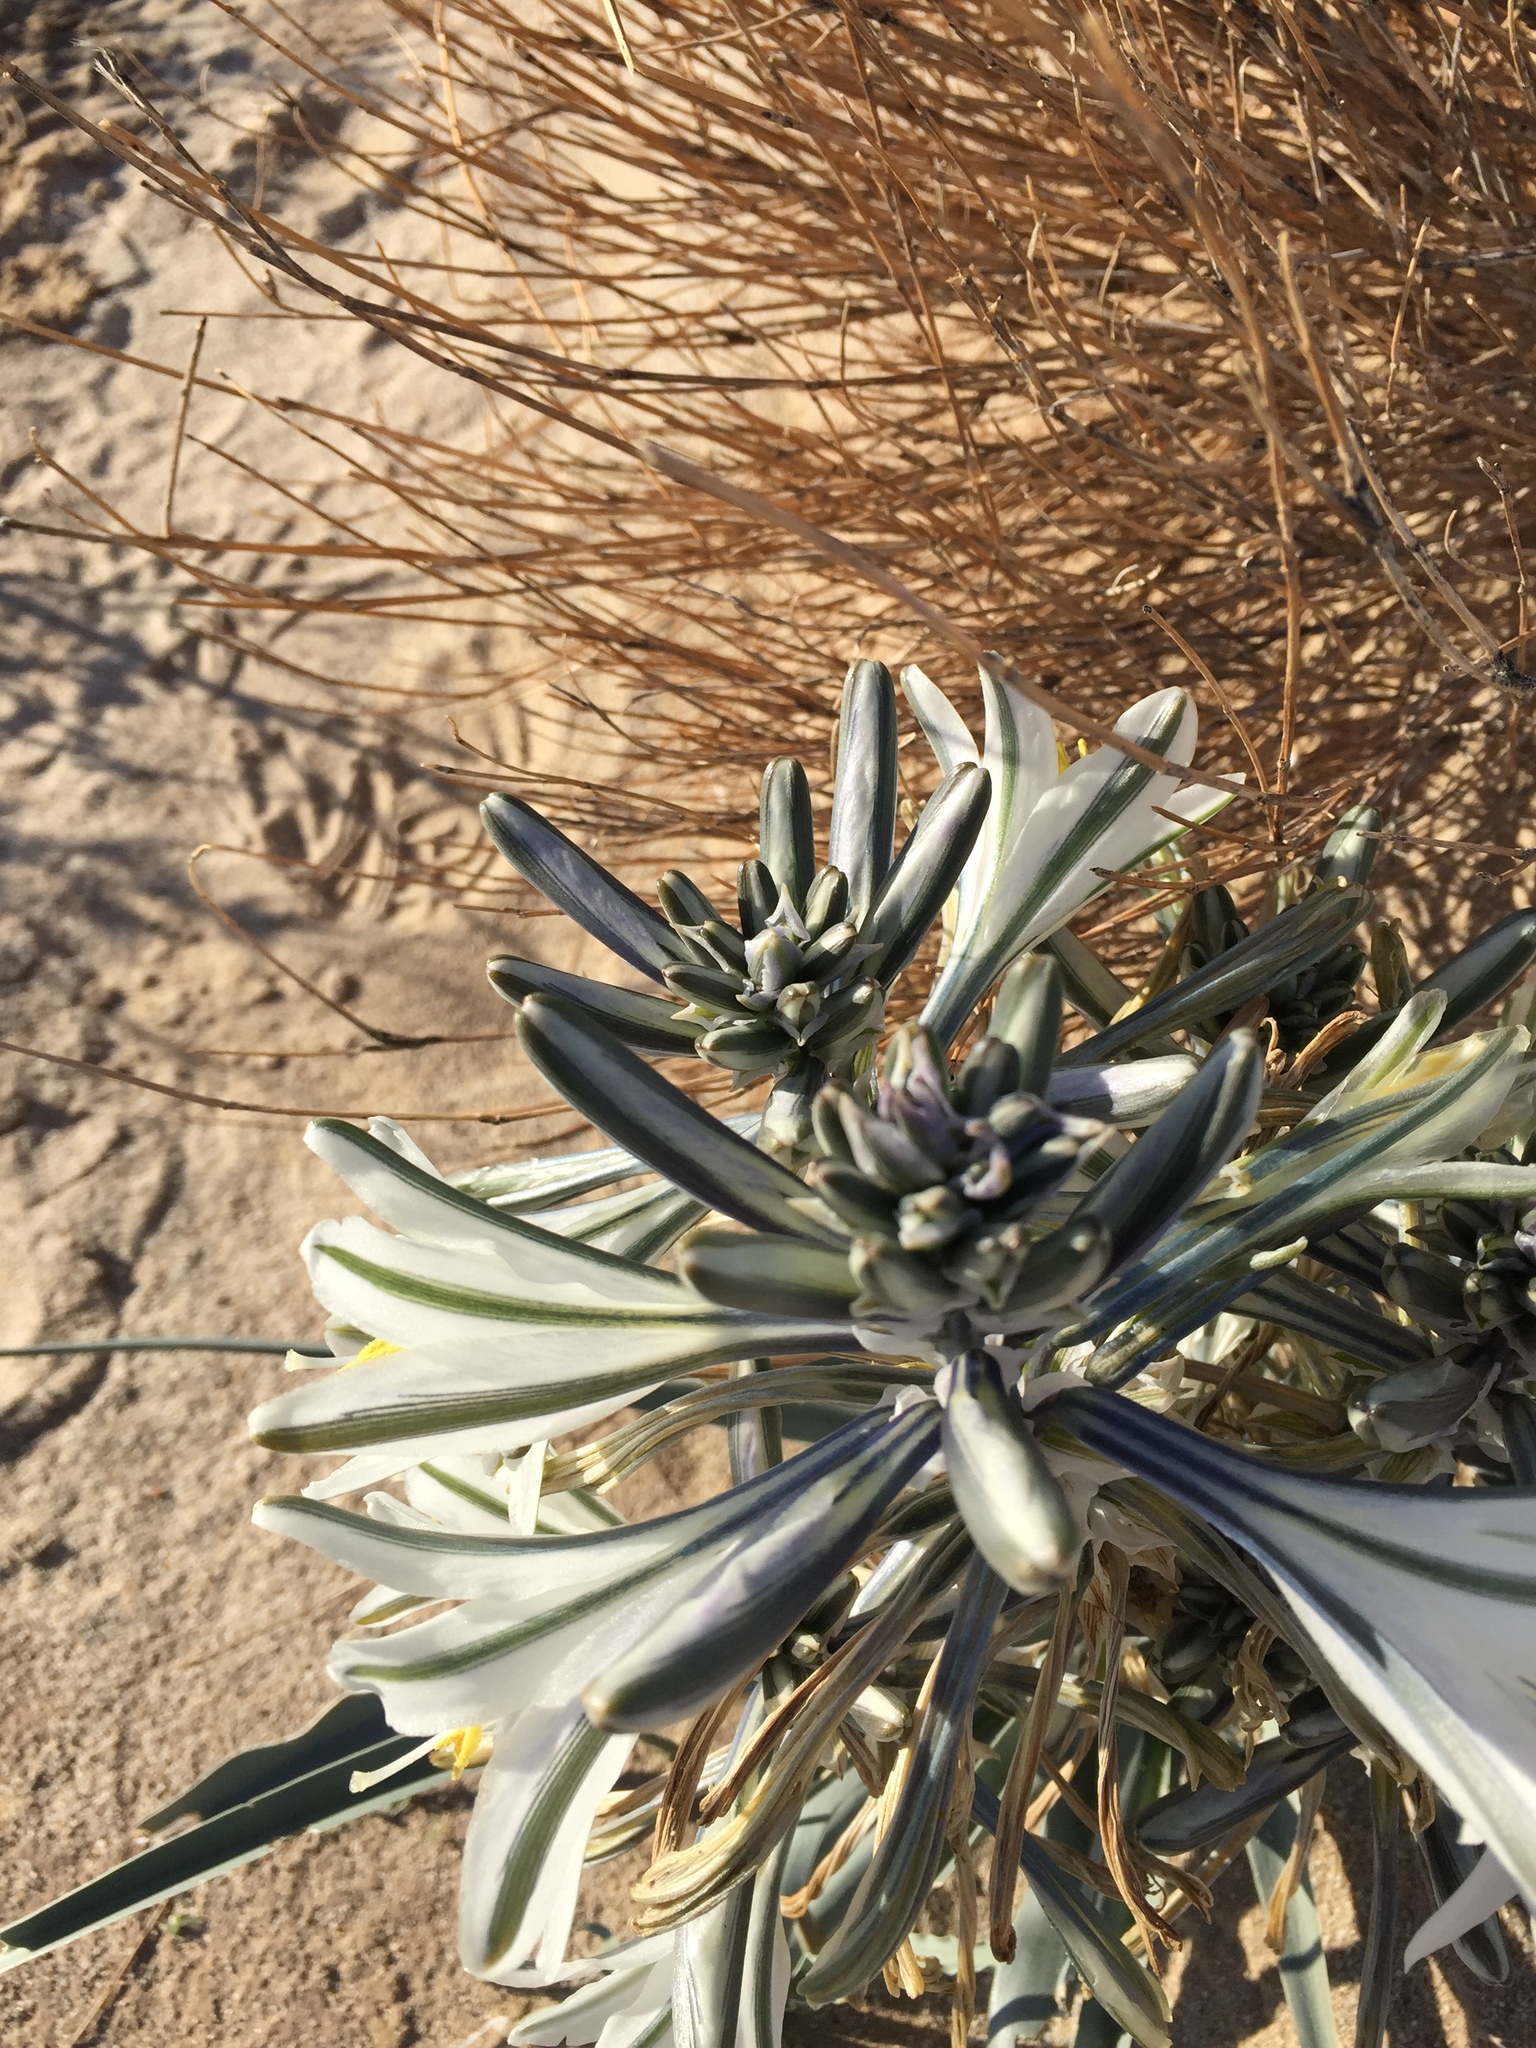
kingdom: Plantae
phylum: Tracheophyta
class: Liliopsida
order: Asparagales
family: Asparagaceae
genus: Hesperocallis
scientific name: Hesperocallis undulata
